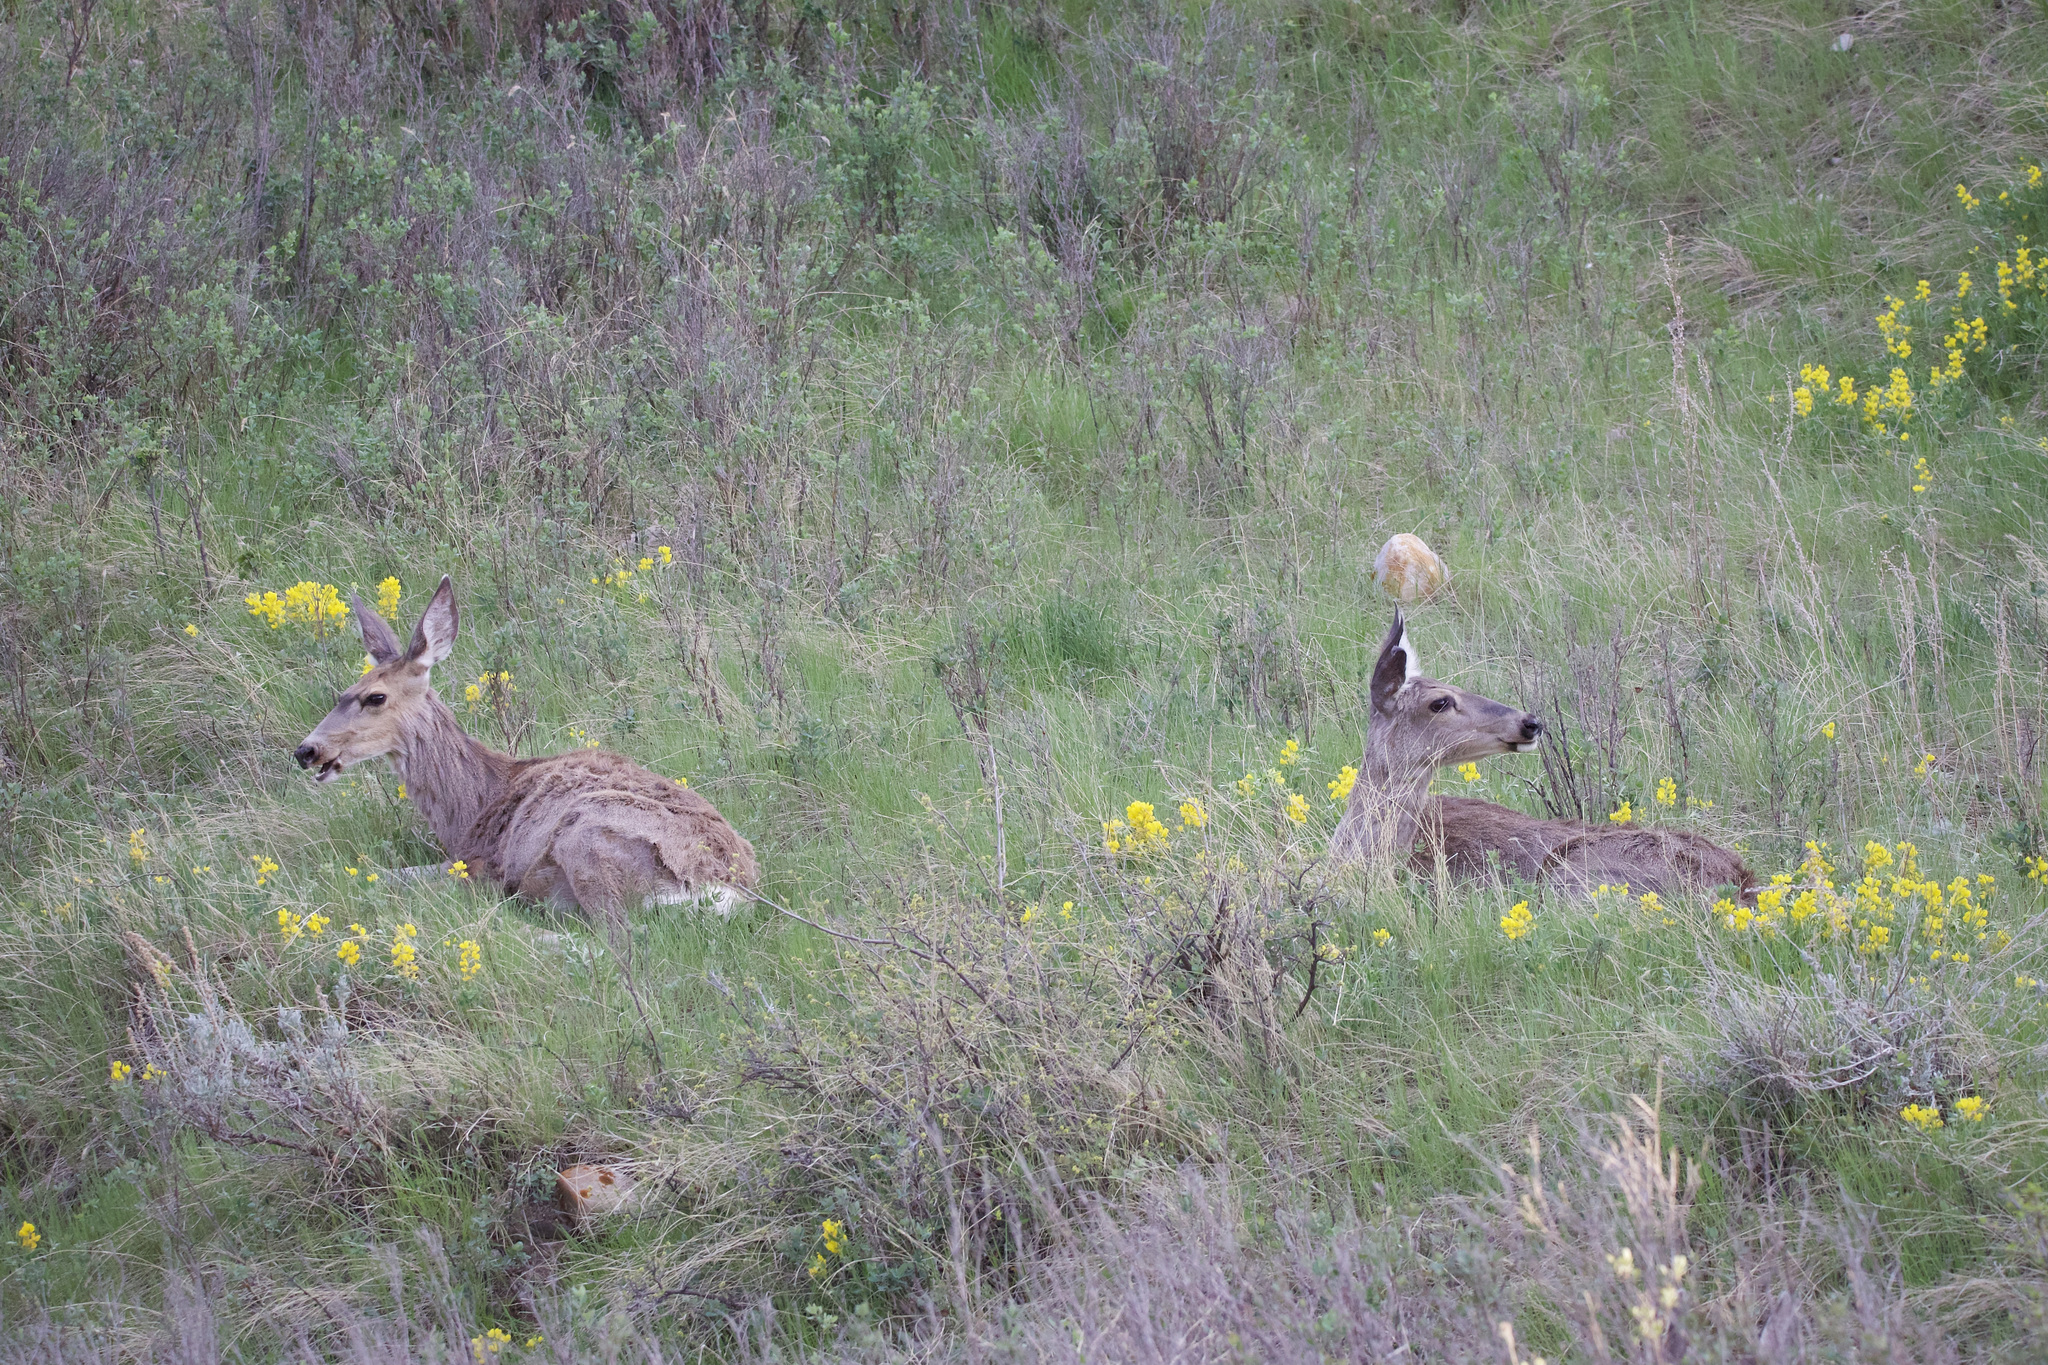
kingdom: Animalia
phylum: Chordata
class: Mammalia
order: Artiodactyla
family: Cervidae
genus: Odocoileus
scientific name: Odocoileus hemionus
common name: Mule deer
